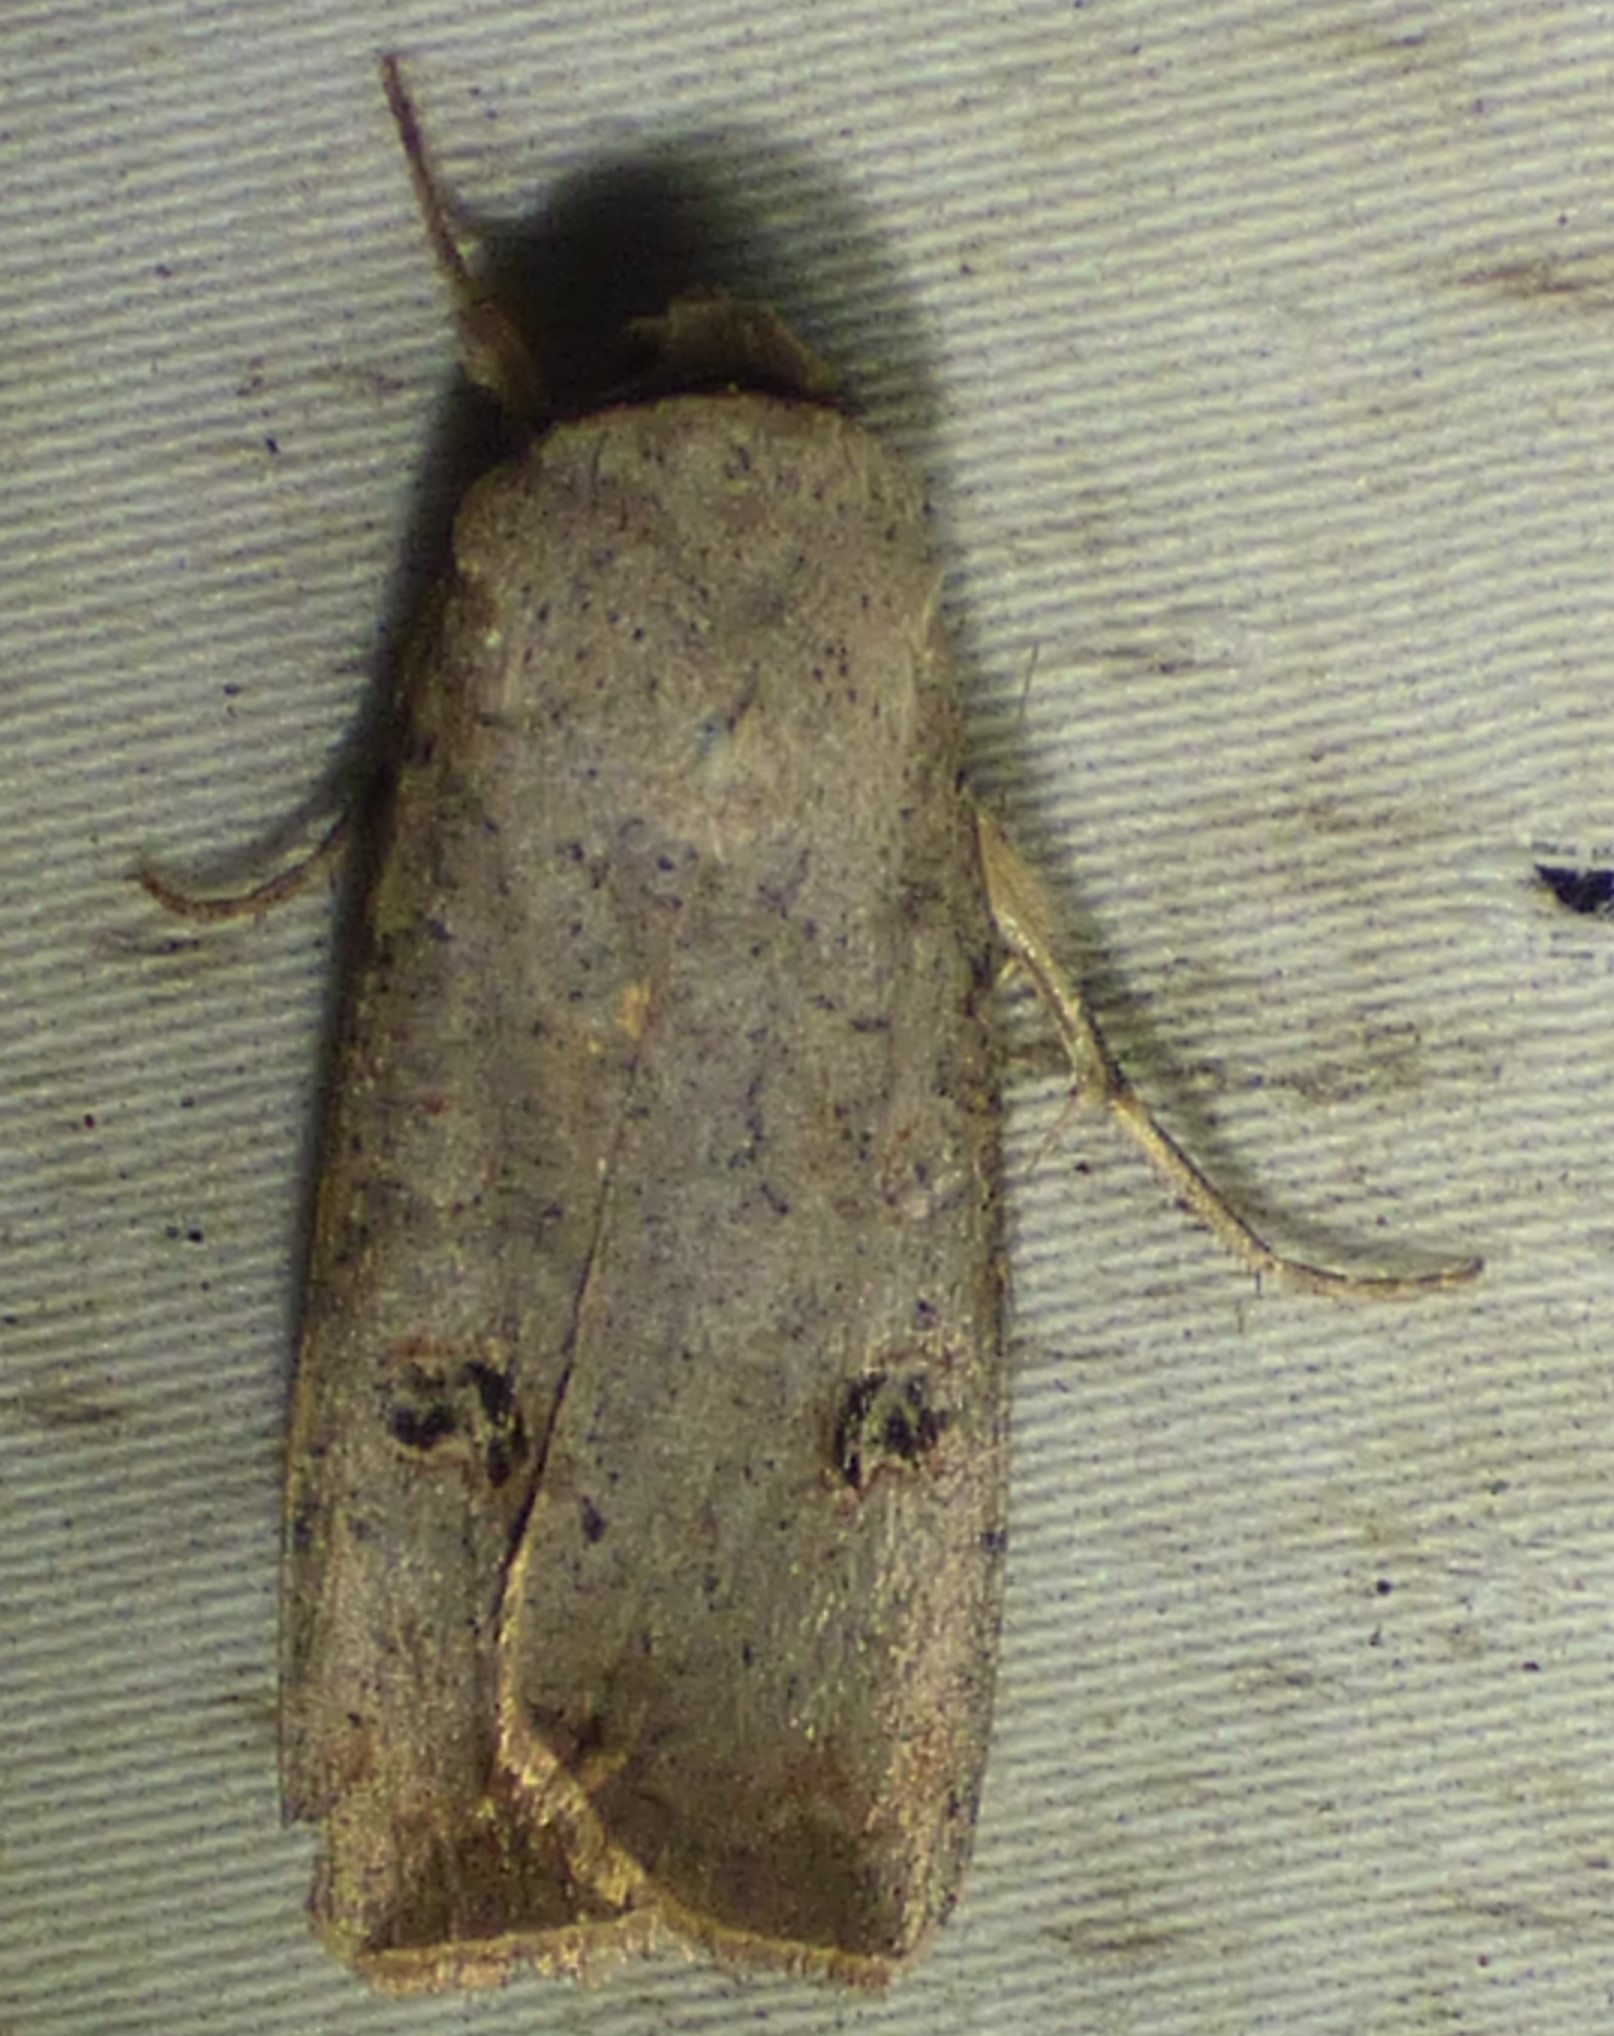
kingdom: Animalia
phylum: Arthropoda
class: Insecta
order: Lepidoptera
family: Noctuidae
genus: Anicla
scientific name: Anicla infecta
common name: Green cutworm
